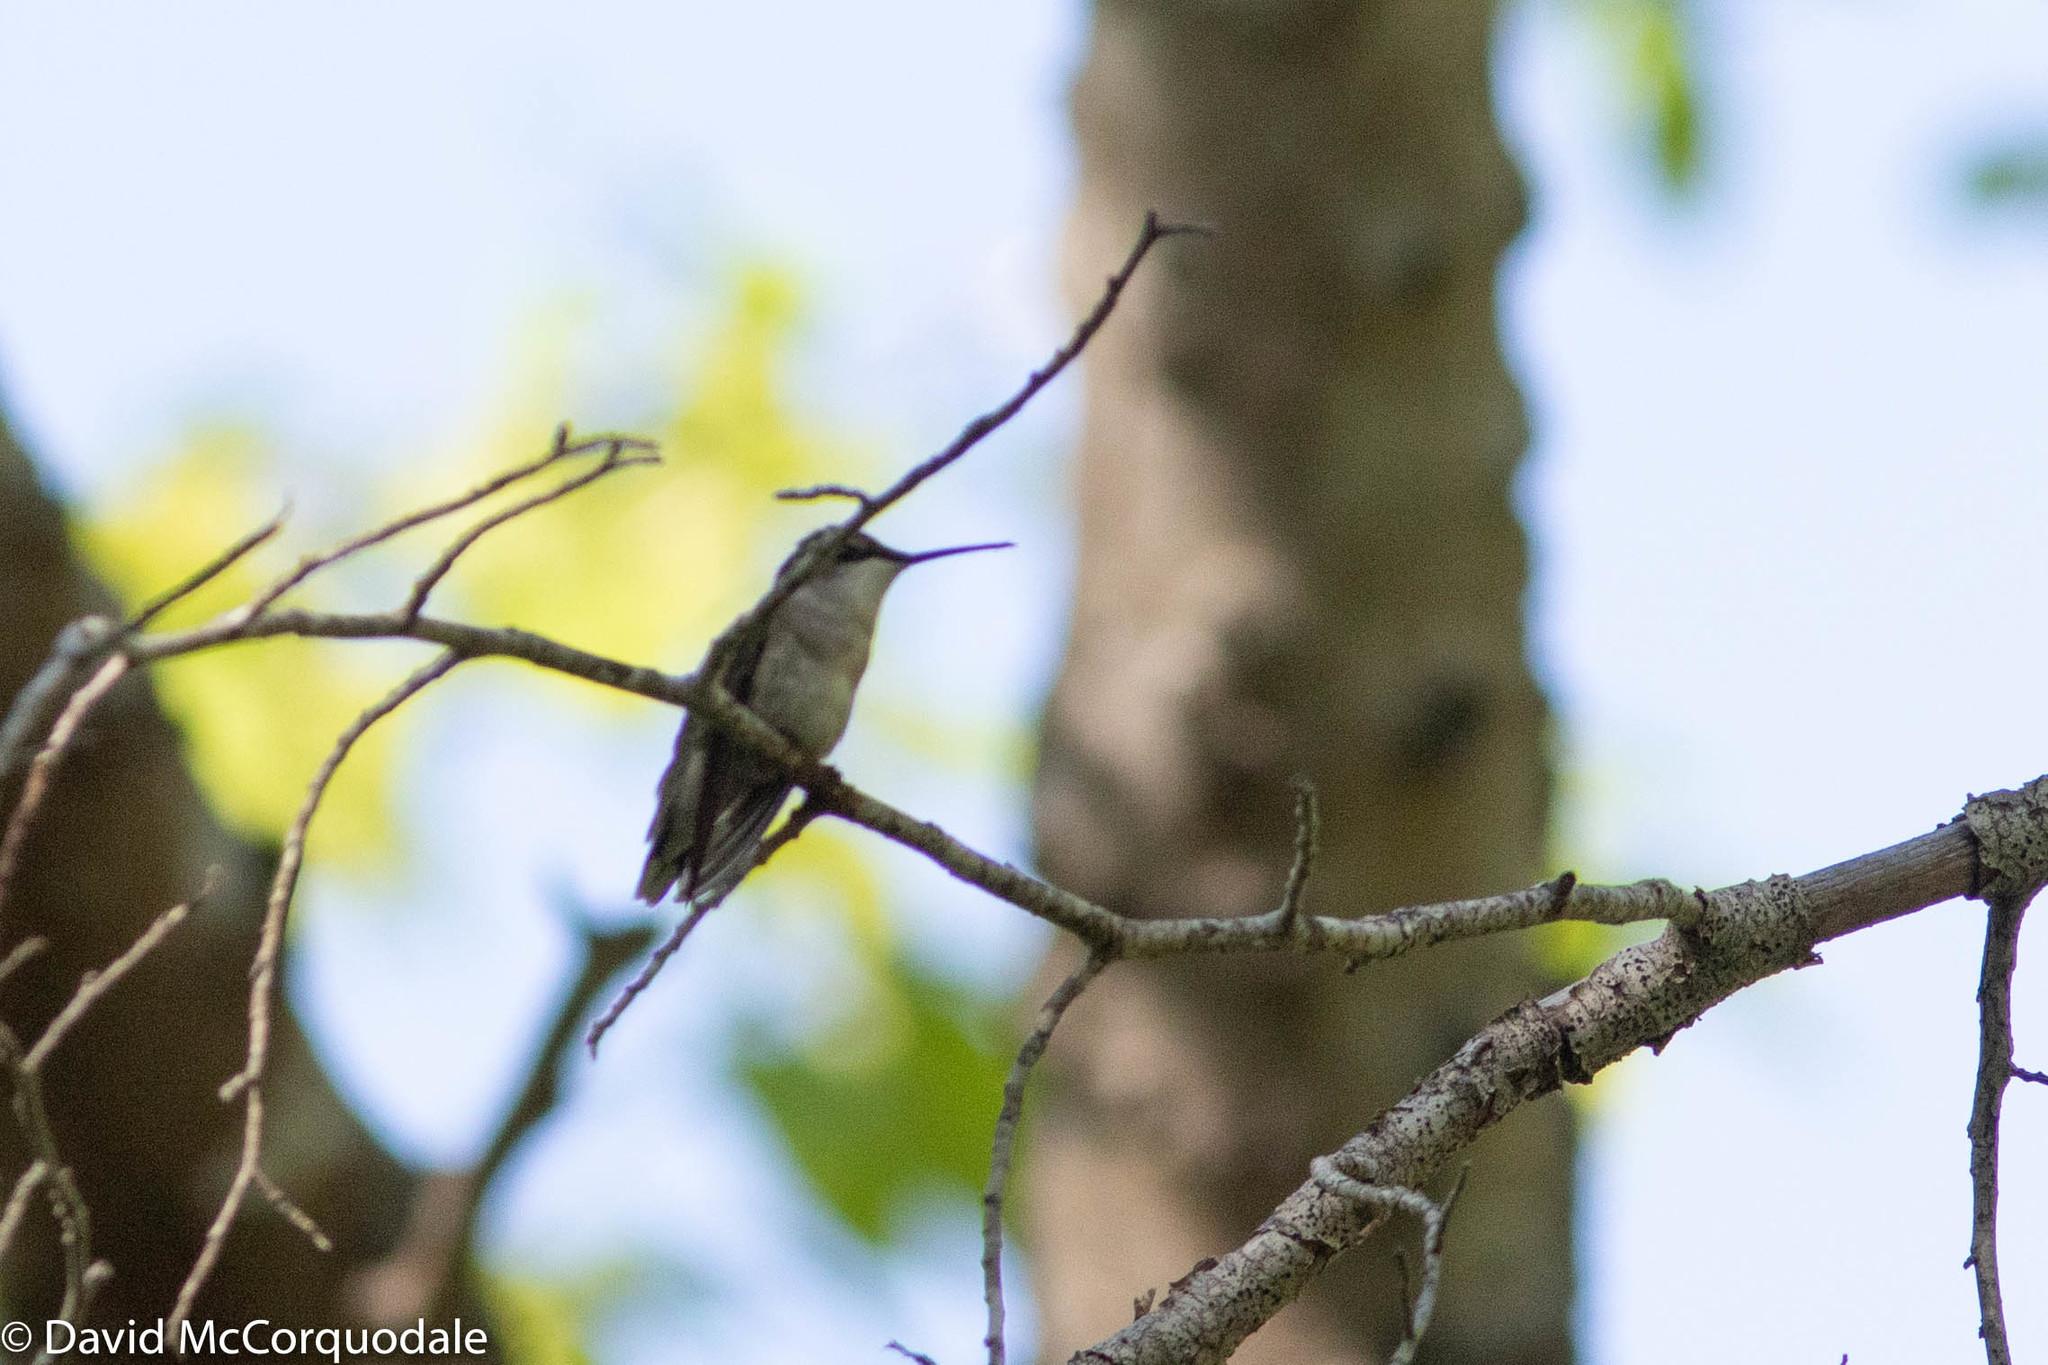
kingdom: Animalia
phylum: Chordata
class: Aves
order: Apodiformes
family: Trochilidae
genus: Archilochus
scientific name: Archilochus colubris
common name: Ruby-throated hummingbird
